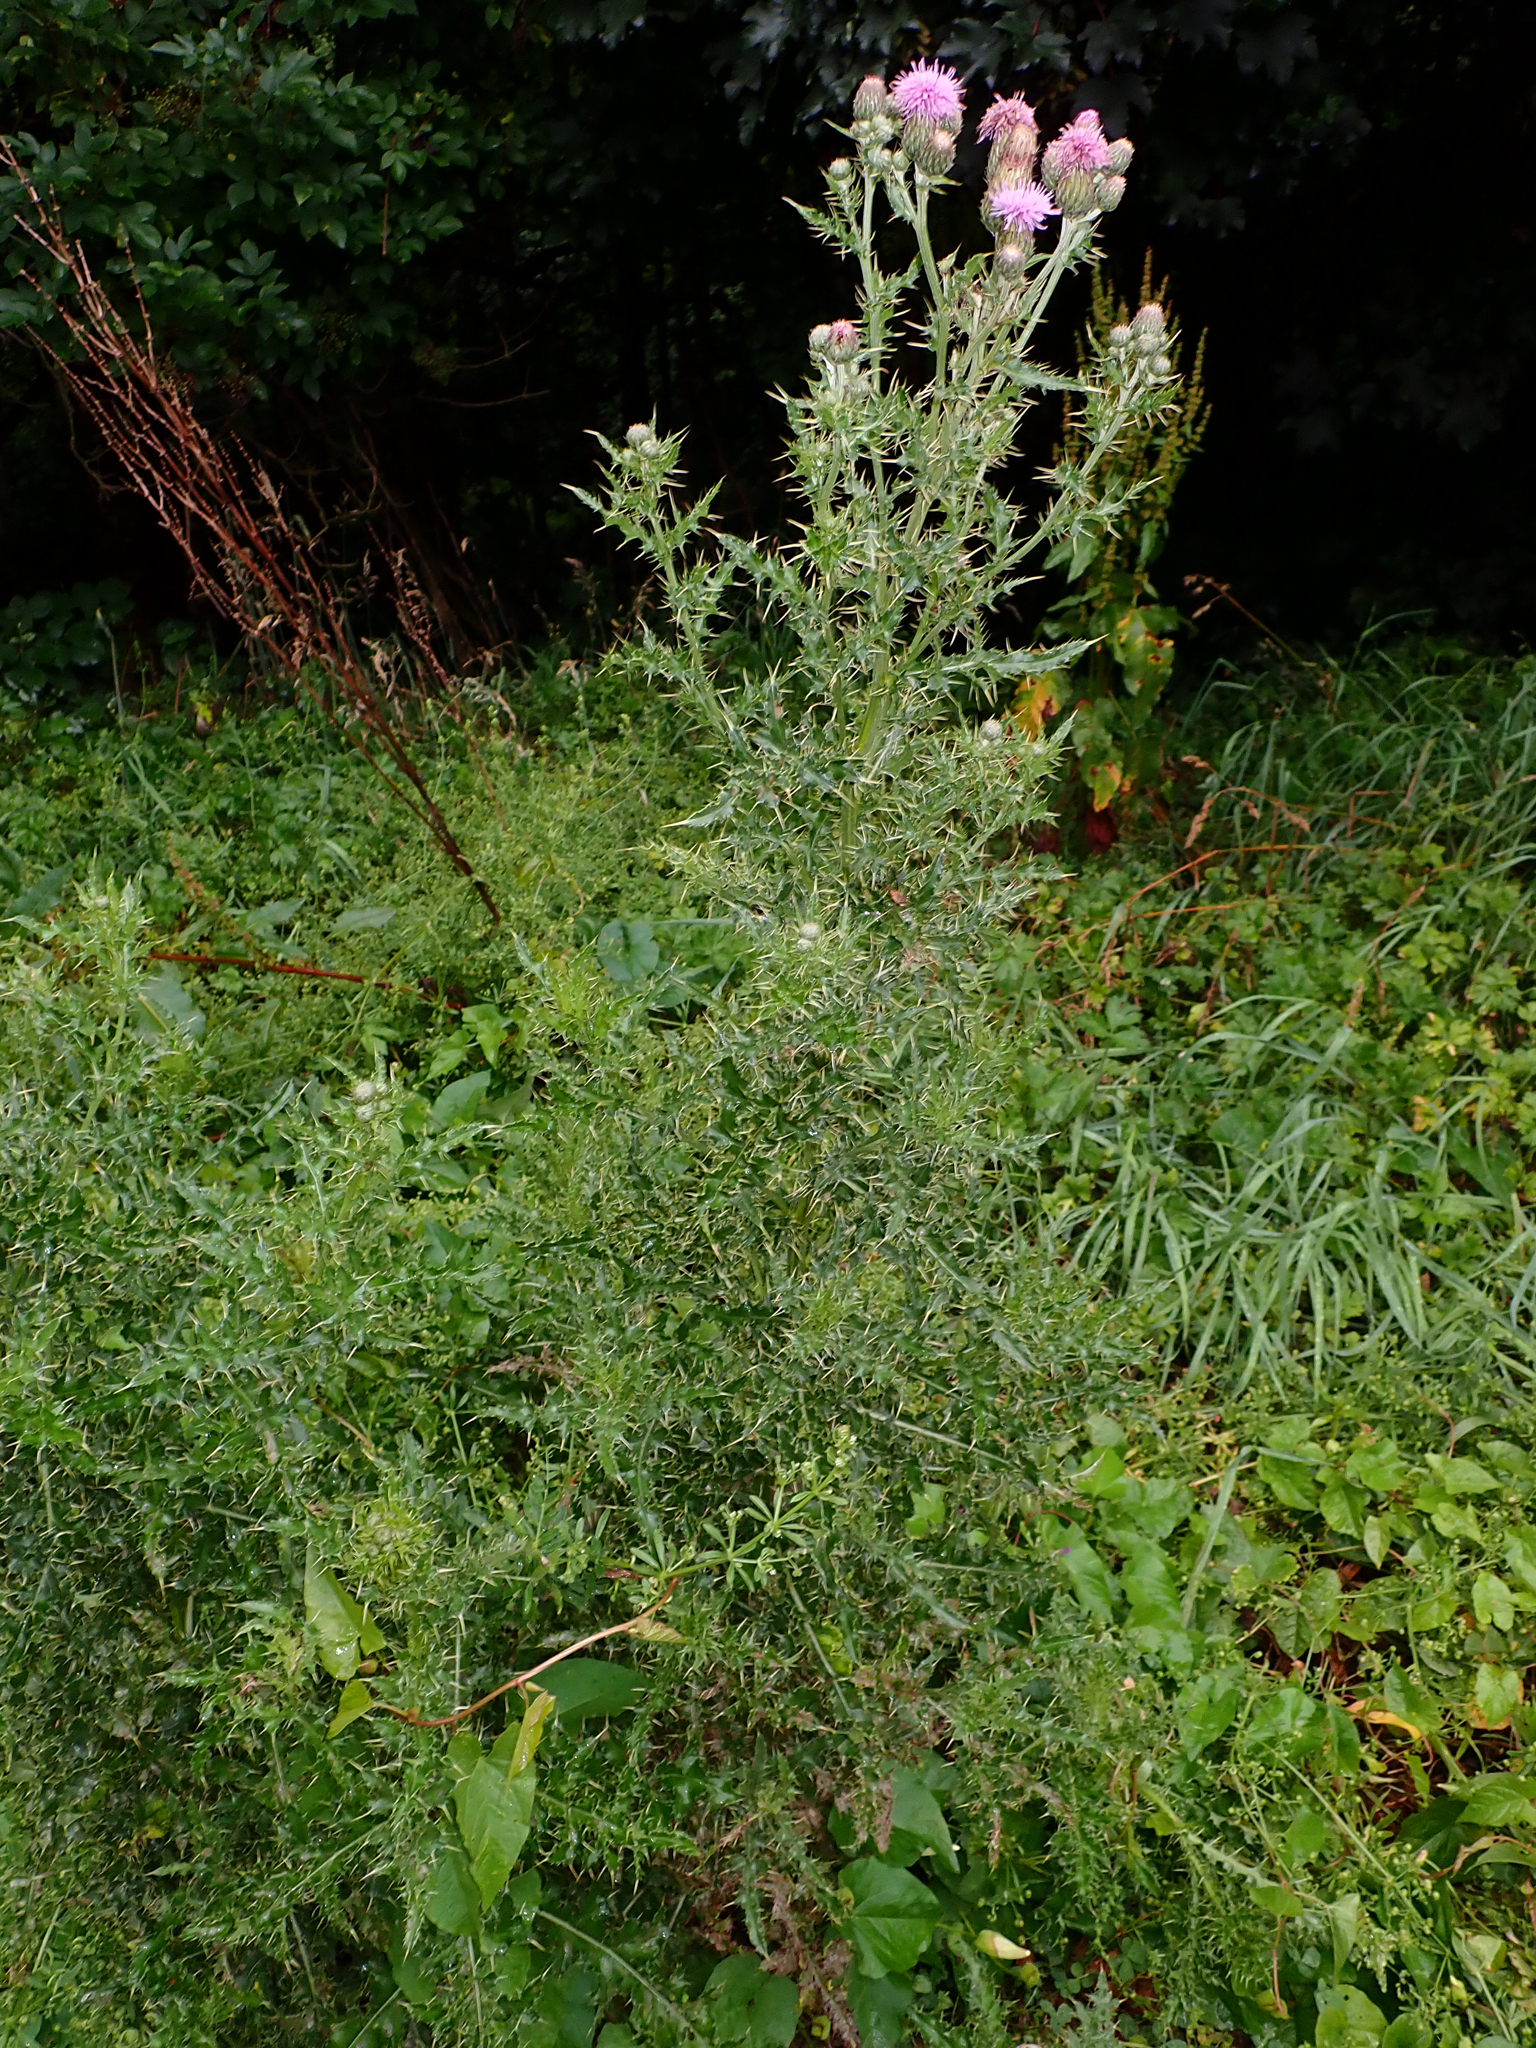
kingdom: Plantae
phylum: Tracheophyta
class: Magnoliopsida
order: Asterales
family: Asteraceae
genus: Cirsium
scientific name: Cirsium arvense
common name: Creeping thistle
